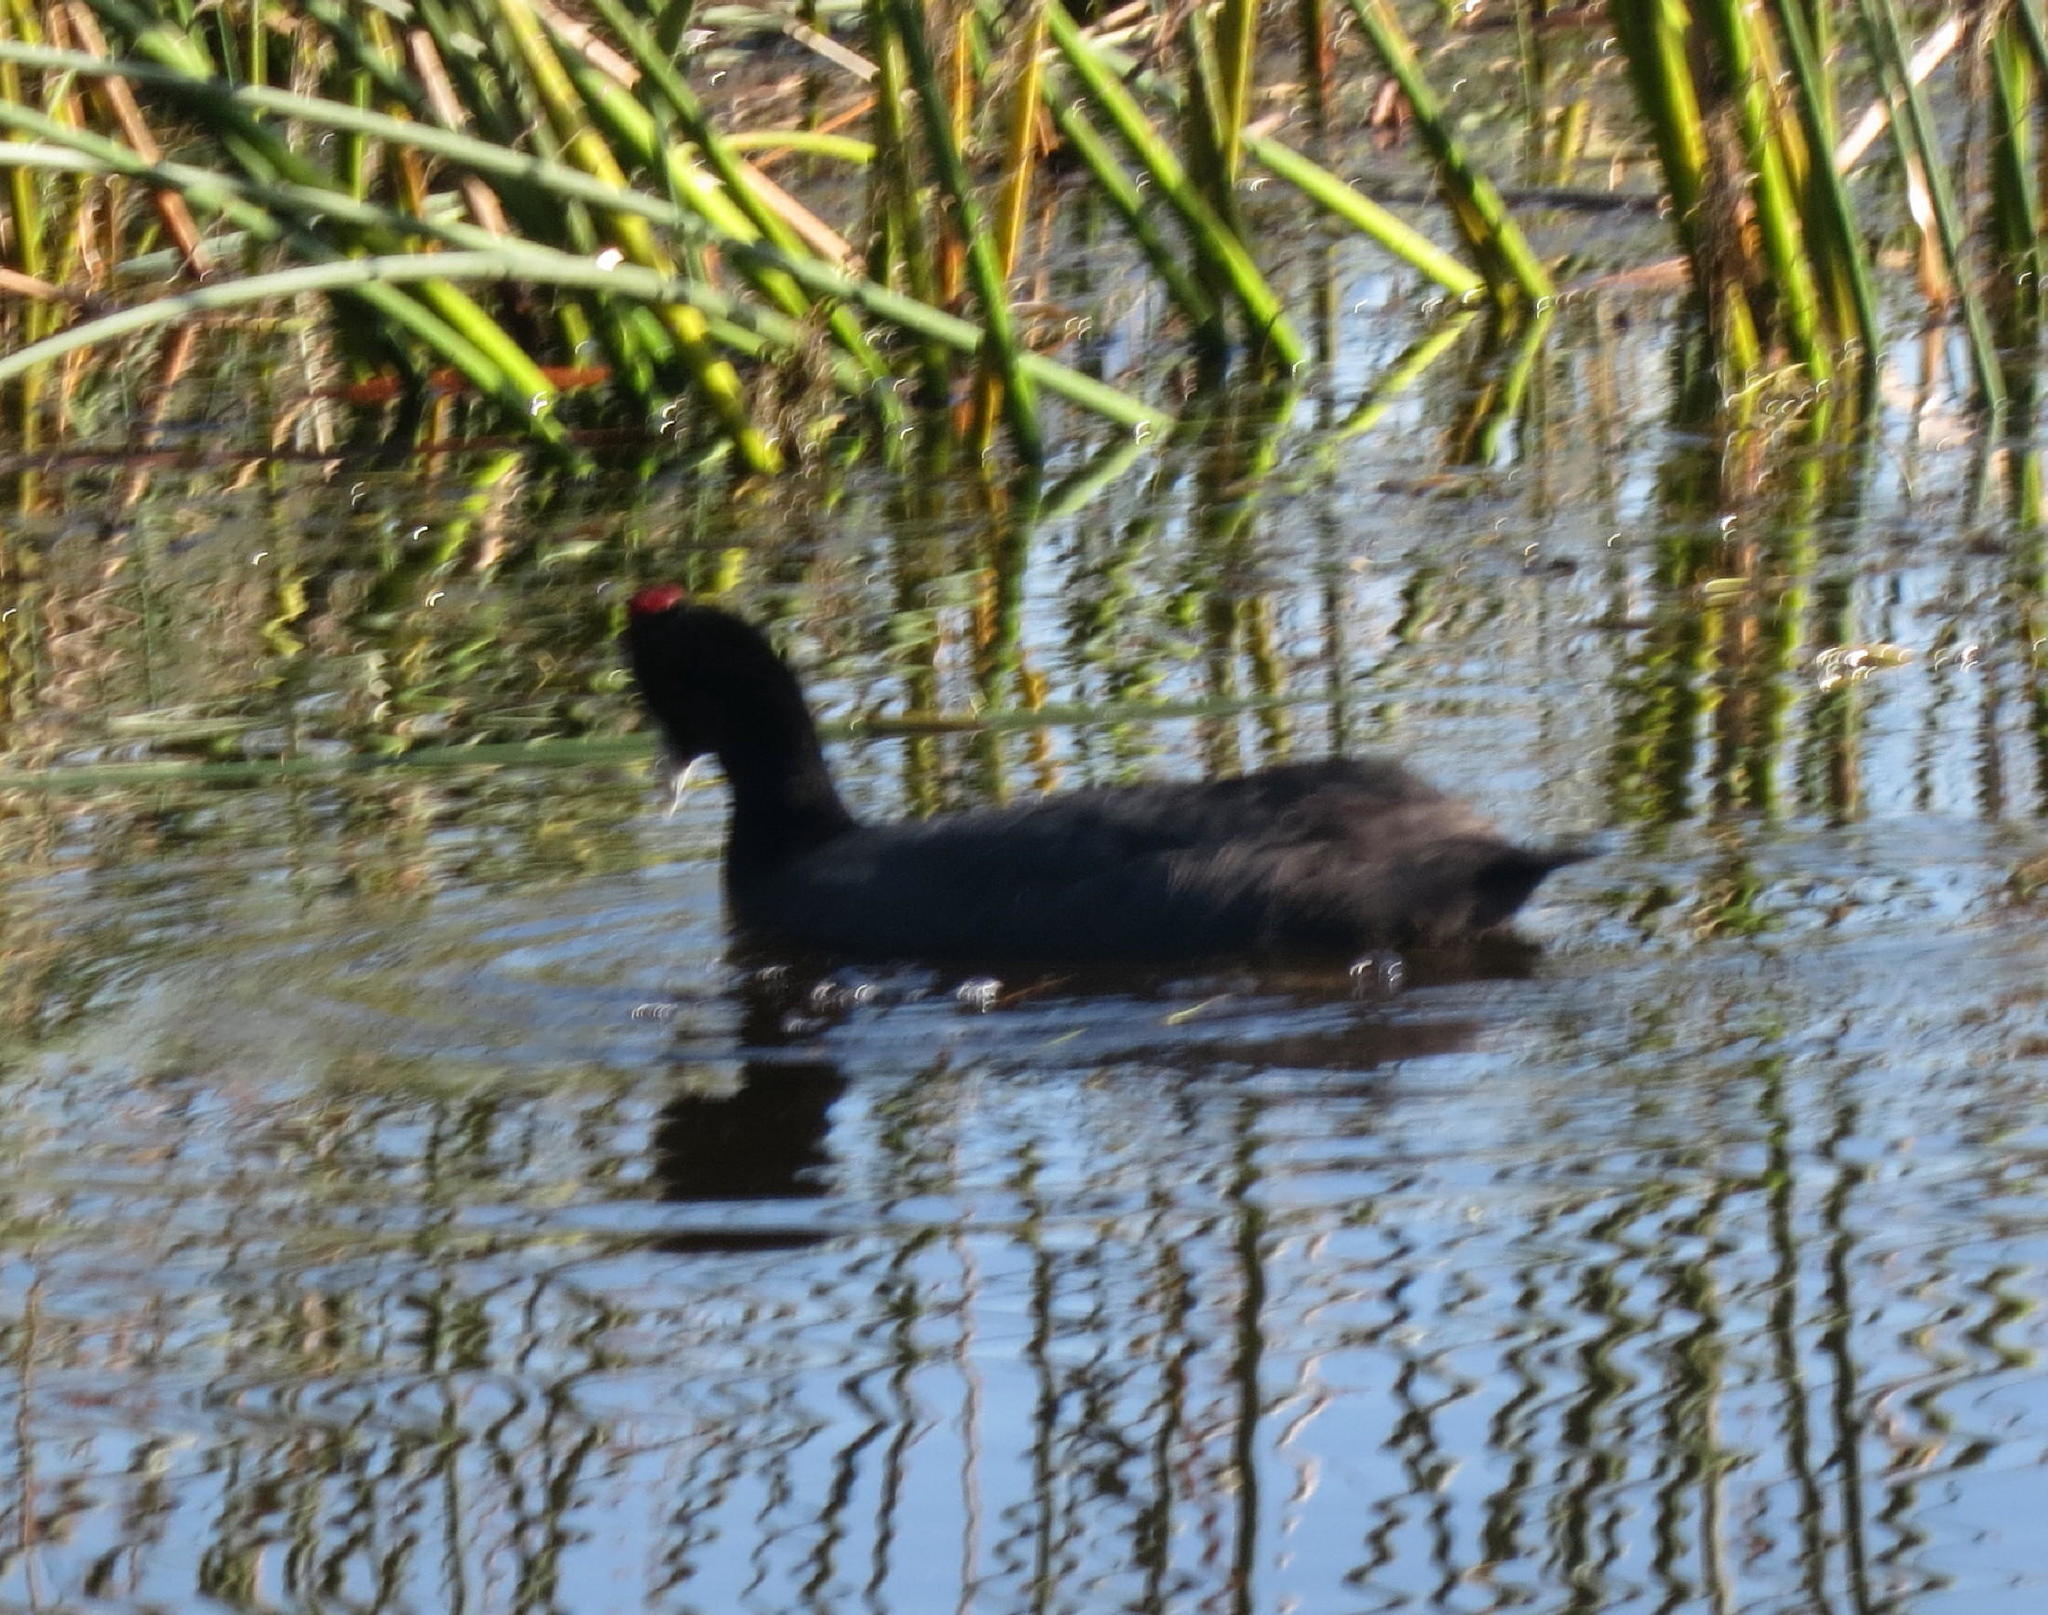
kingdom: Animalia
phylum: Chordata
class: Aves
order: Gruiformes
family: Rallidae
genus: Fulica
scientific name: Fulica cristata
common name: Red-knobbed coot
